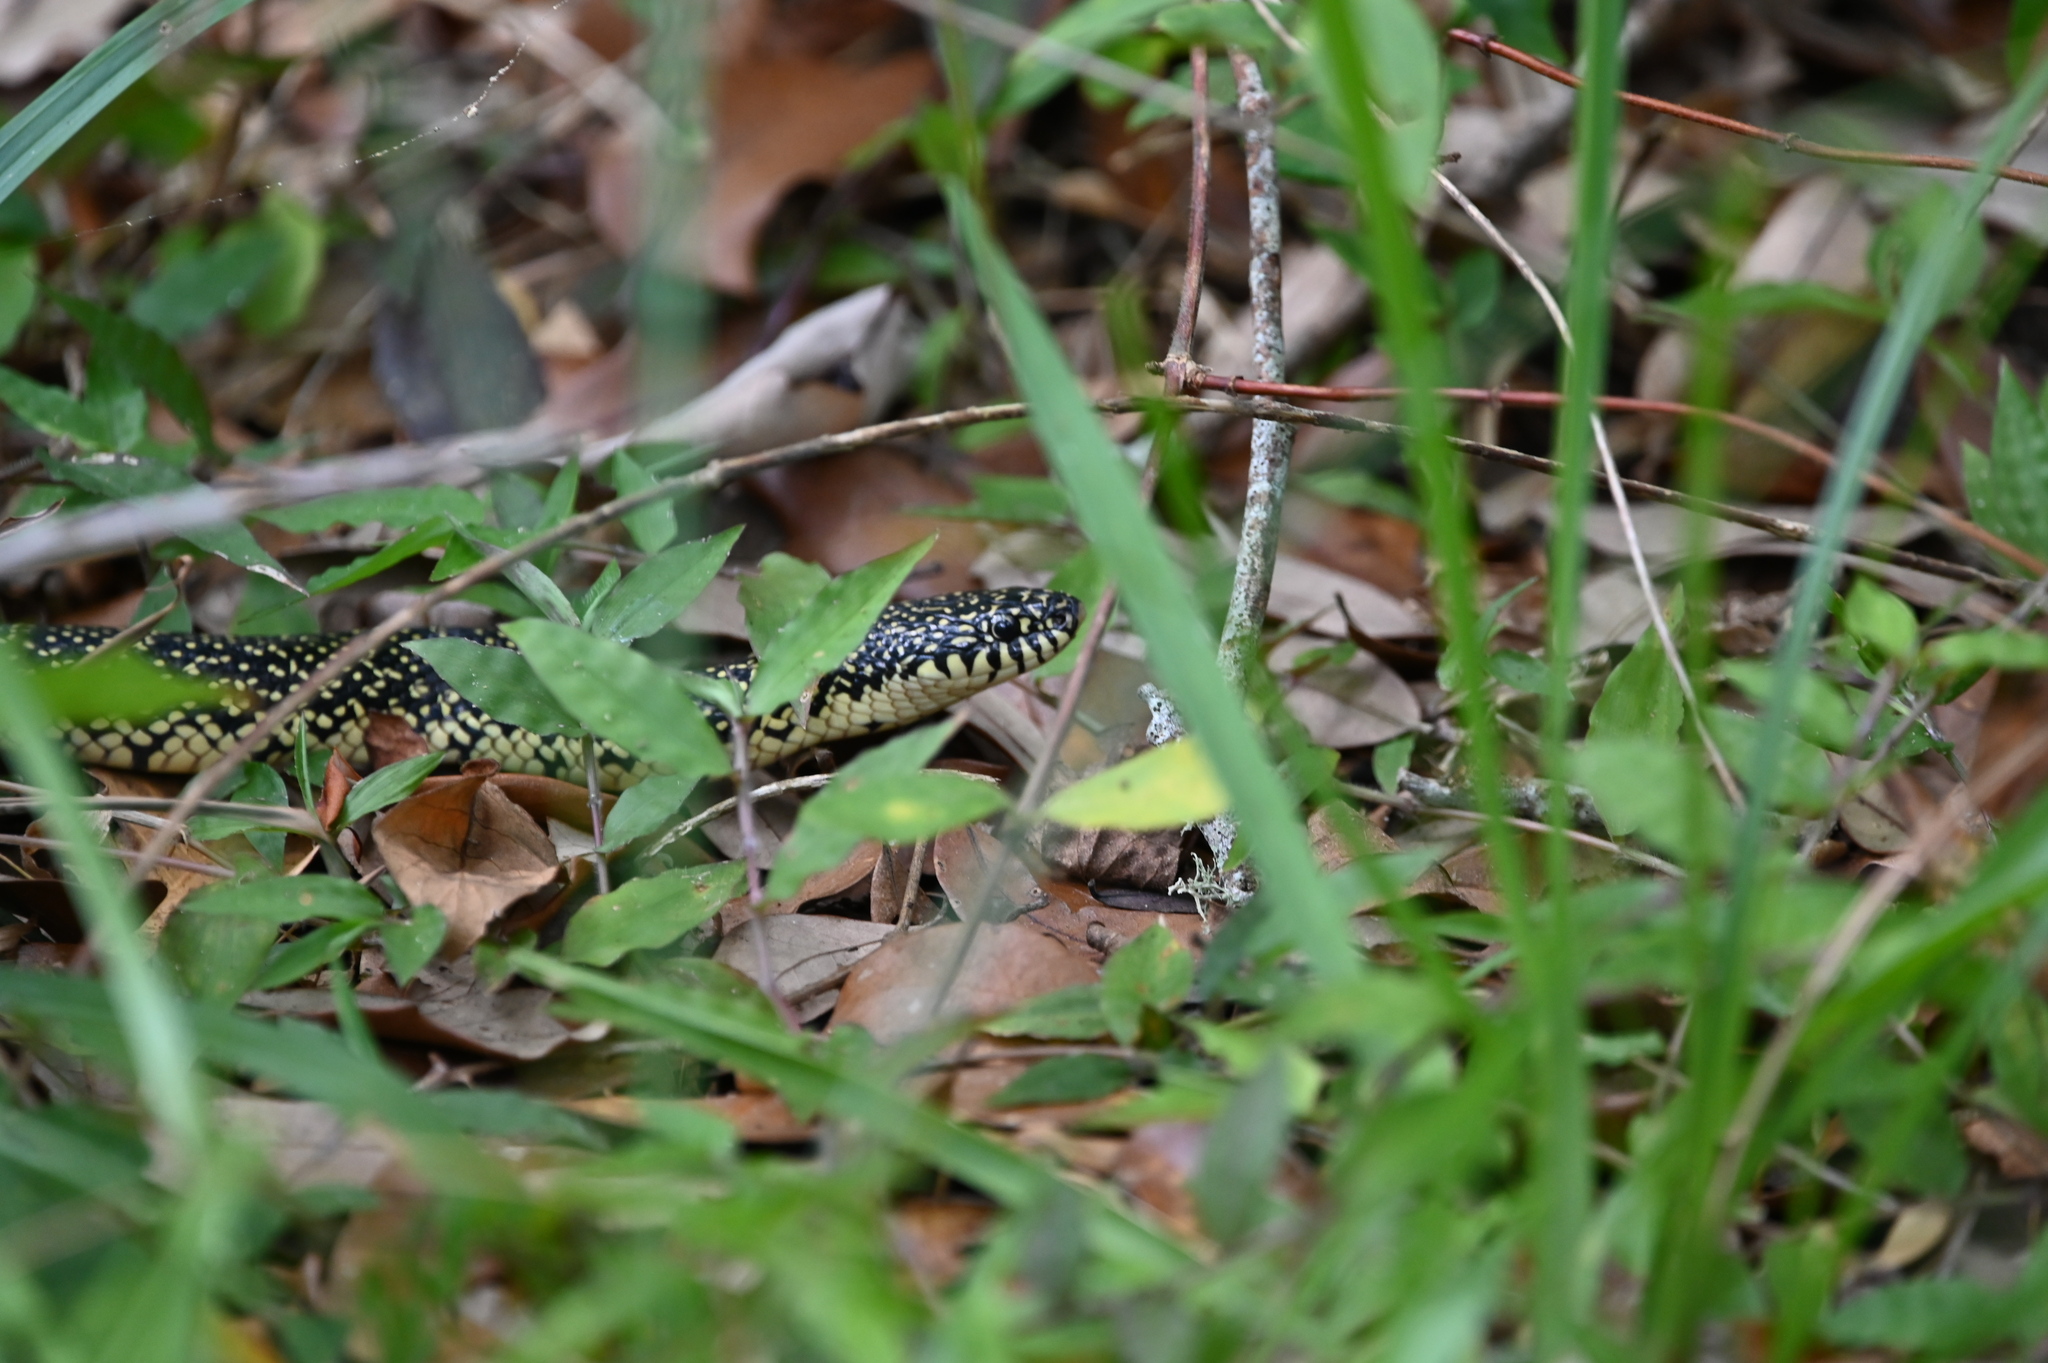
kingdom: Animalia
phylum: Chordata
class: Squamata
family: Colubridae
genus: Lampropeltis
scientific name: Lampropeltis holbrooki
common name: Speckled kingsnake
